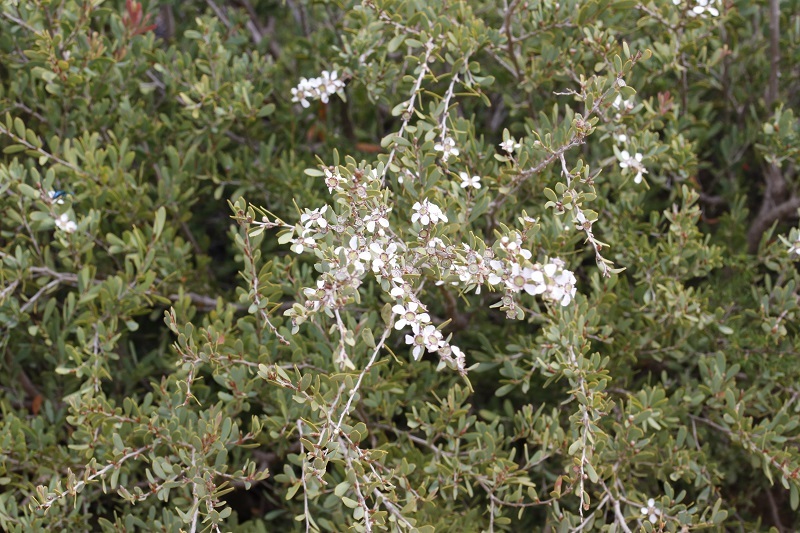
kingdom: Plantae
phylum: Tracheophyta
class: Magnoliopsida
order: Myrtales
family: Myrtaceae
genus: Leptospermum
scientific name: Leptospermum laevigatum
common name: Australian teatree
